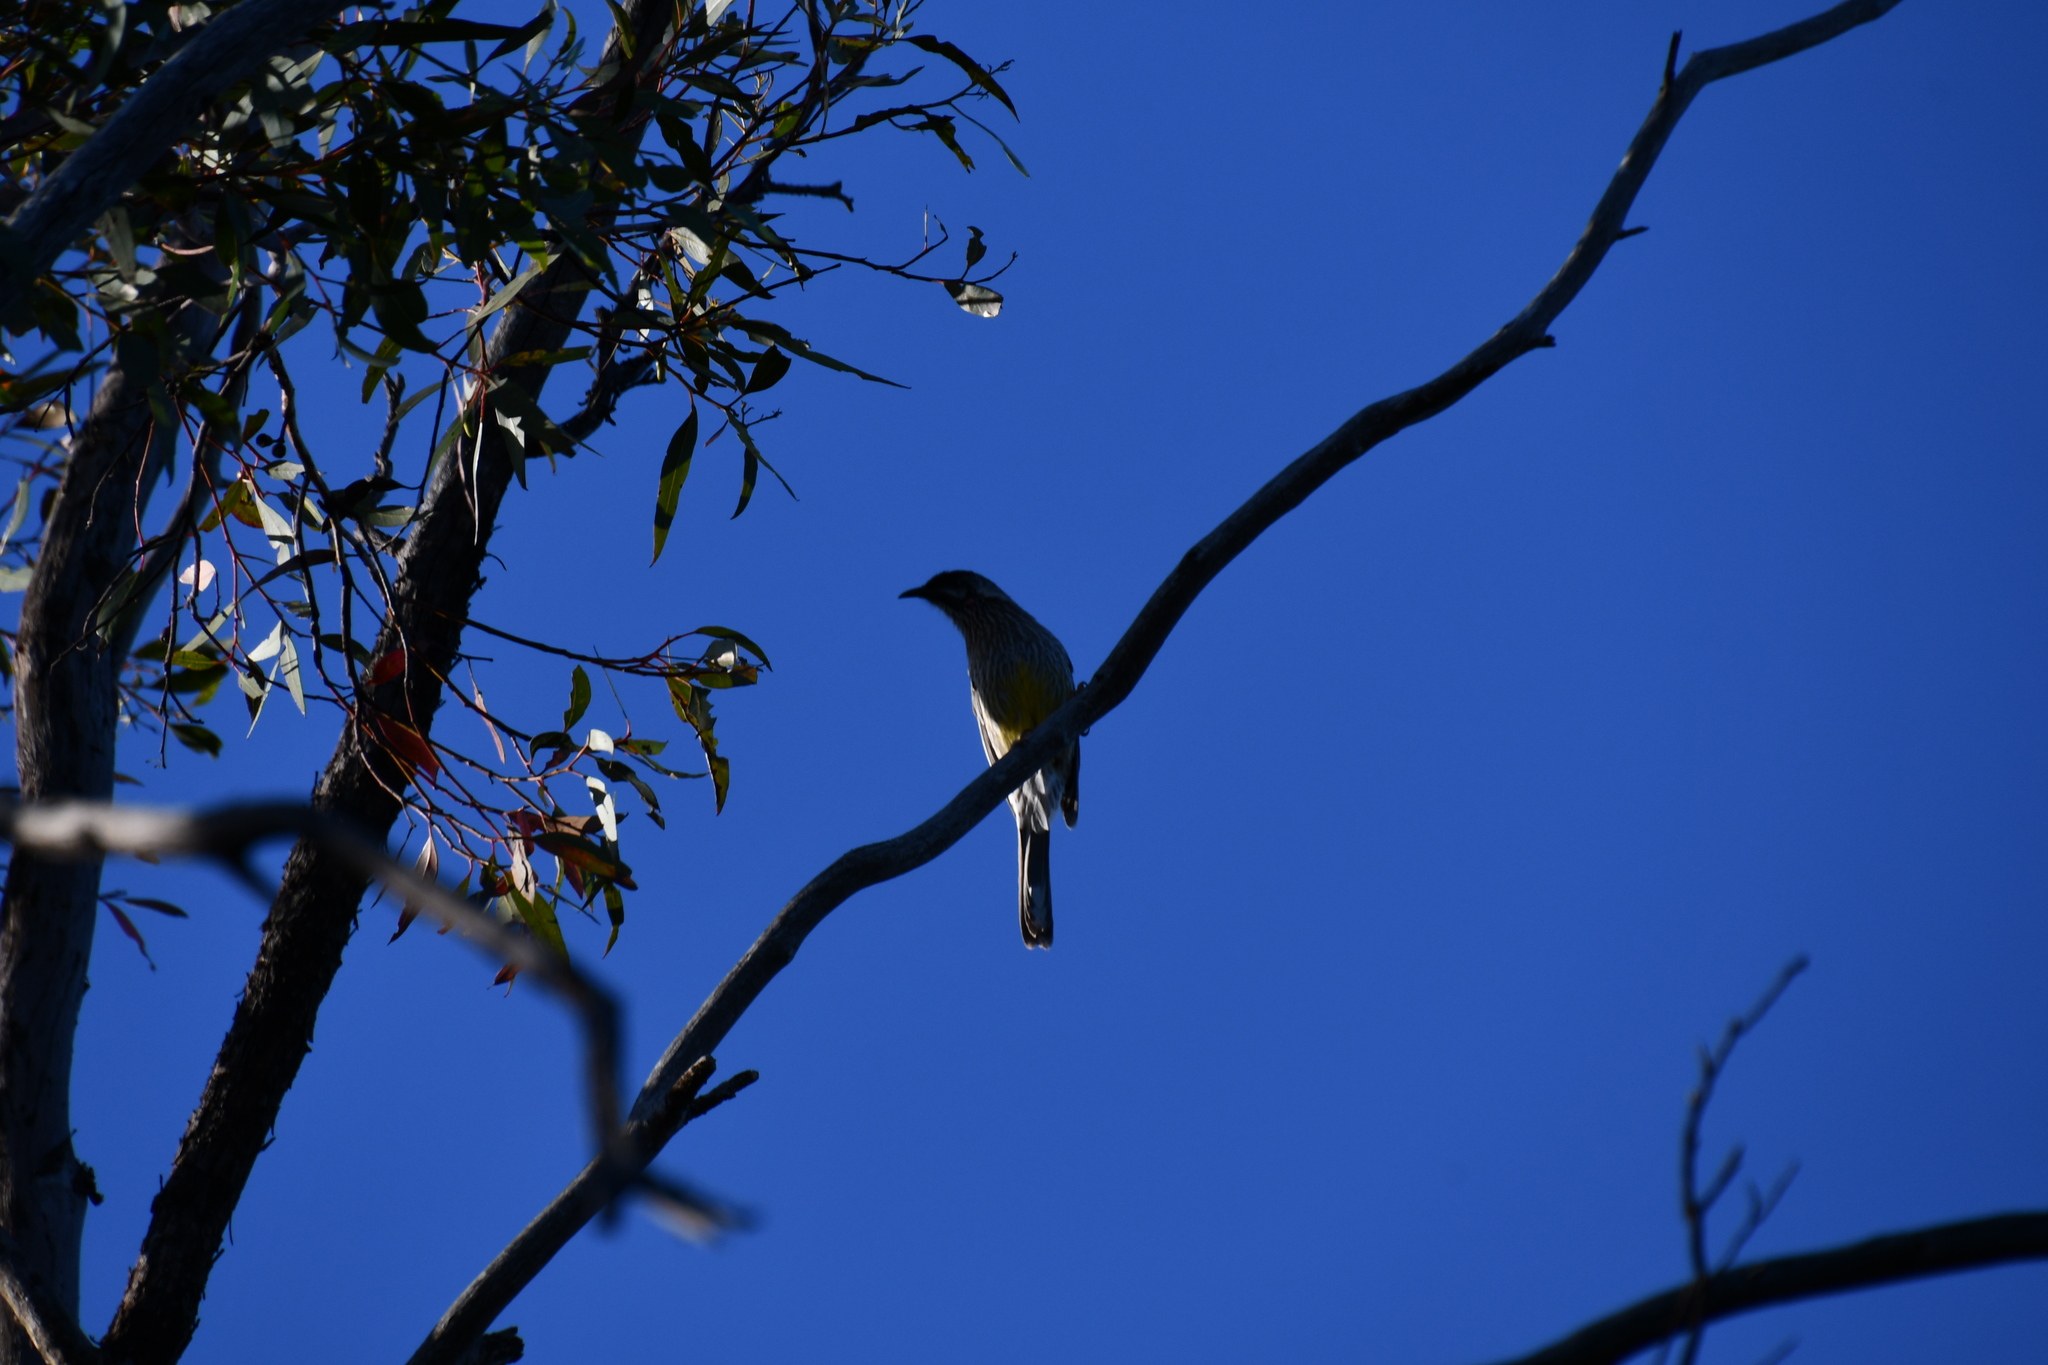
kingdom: Animalia
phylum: Chordata
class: Aves
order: Passeriformes
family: Meliphagidae
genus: Anthochaera
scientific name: Anthochaera carunculata
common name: Red wattlebird
